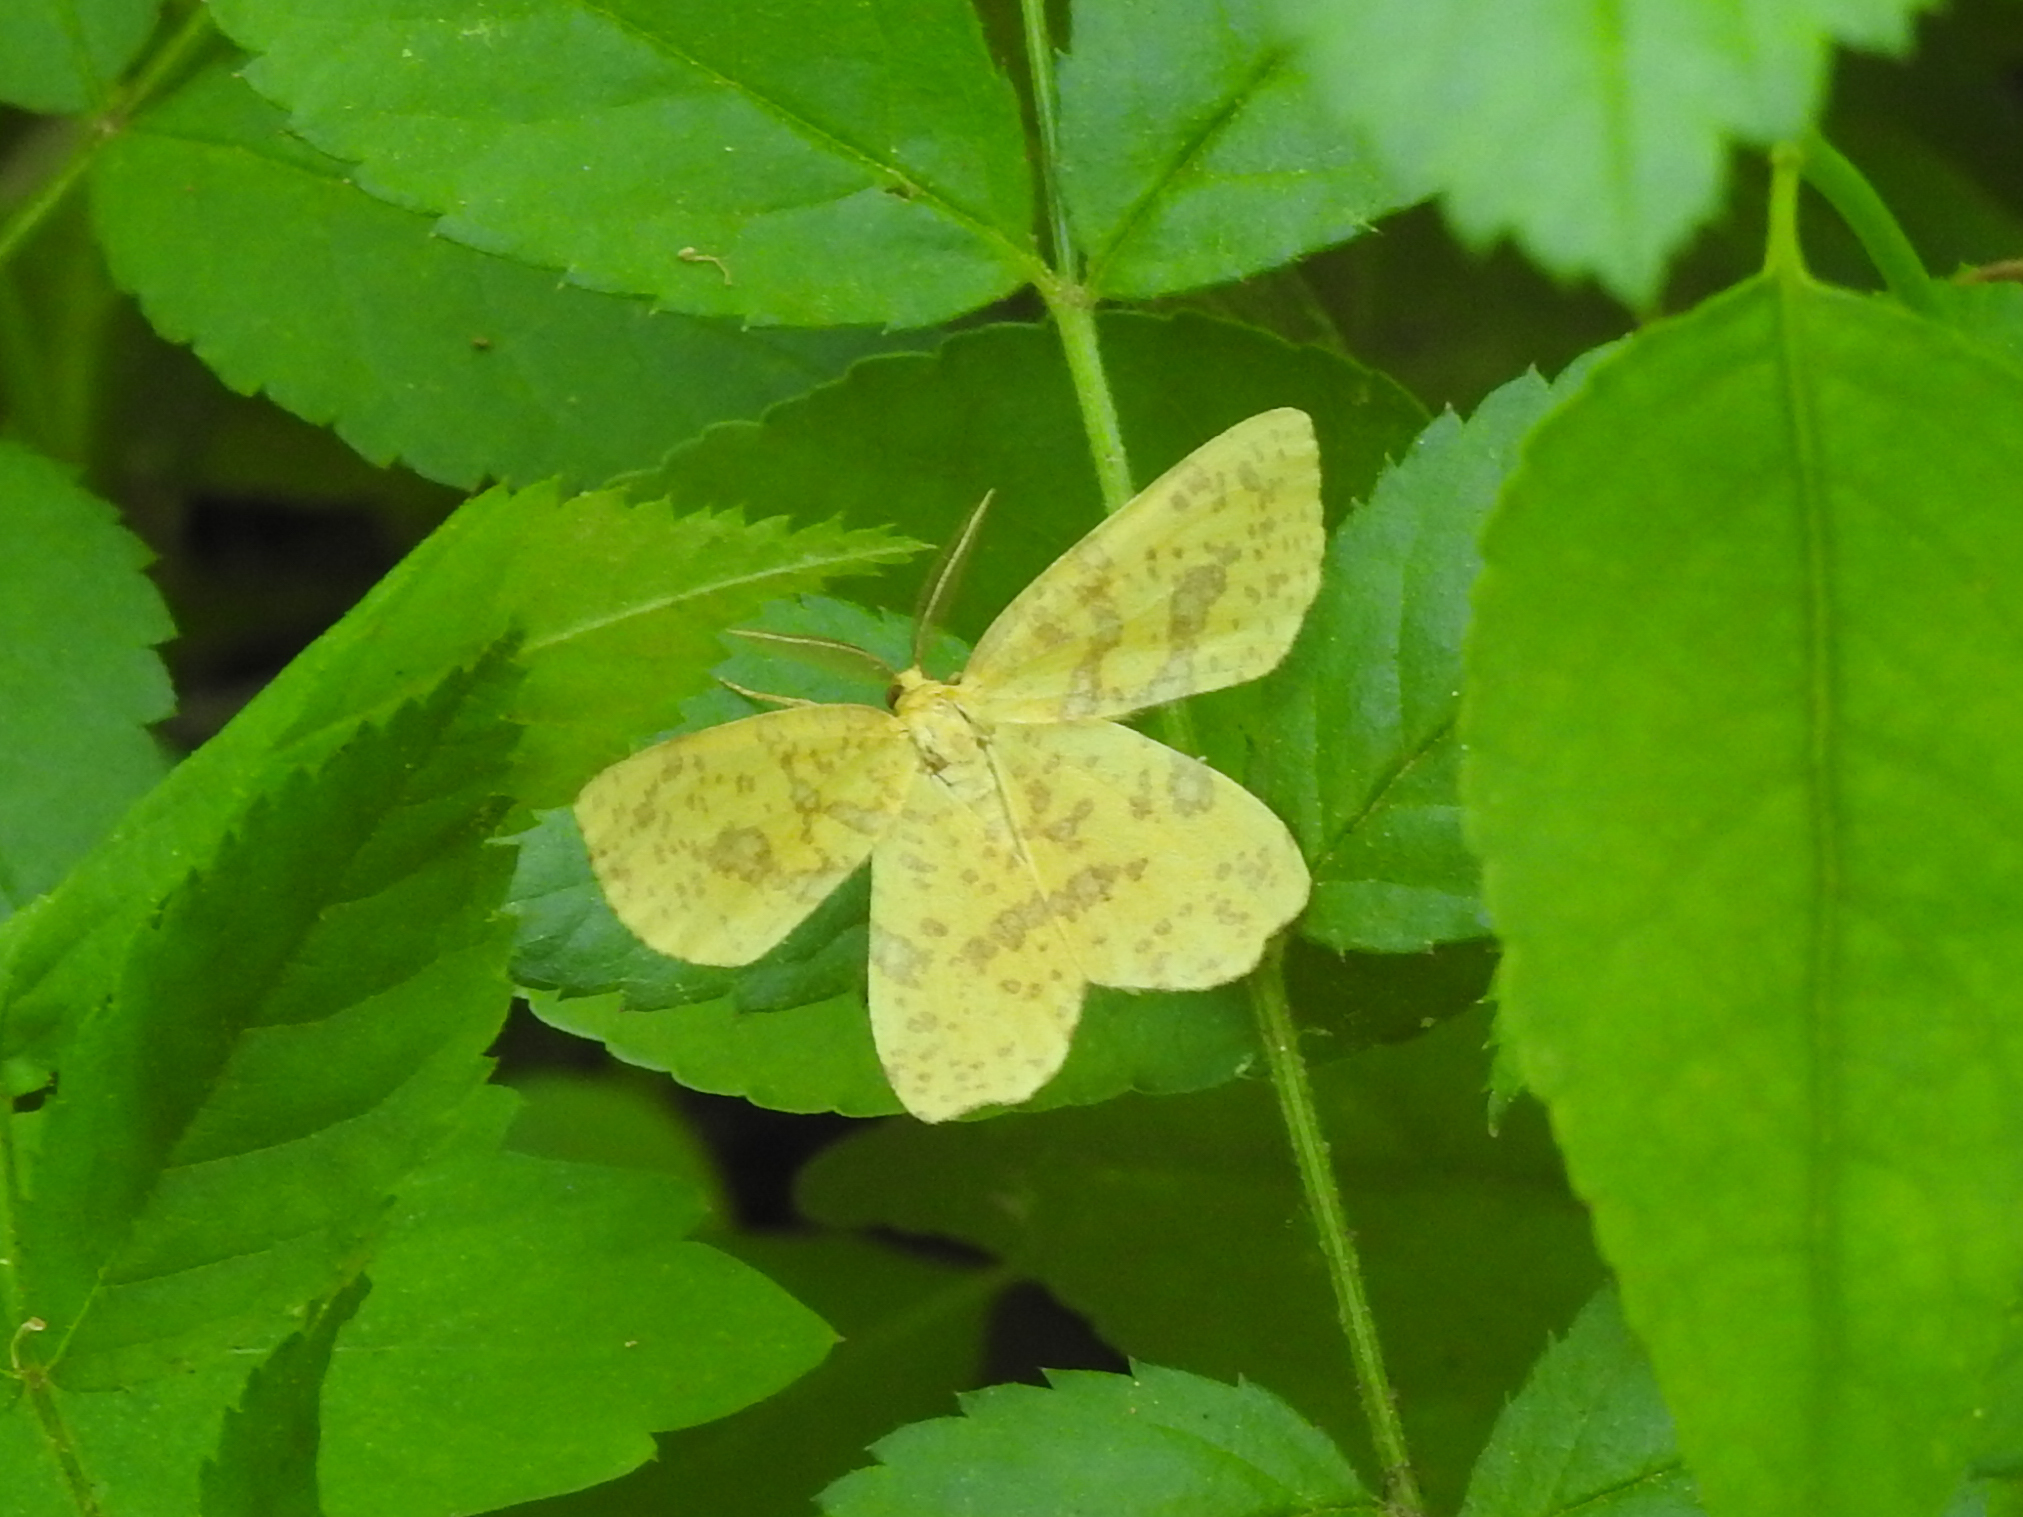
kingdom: Animalia
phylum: Arthropoda
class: Insecta
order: Lepidoptera
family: Geometridae
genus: Xanthotype
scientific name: Xanthotype
